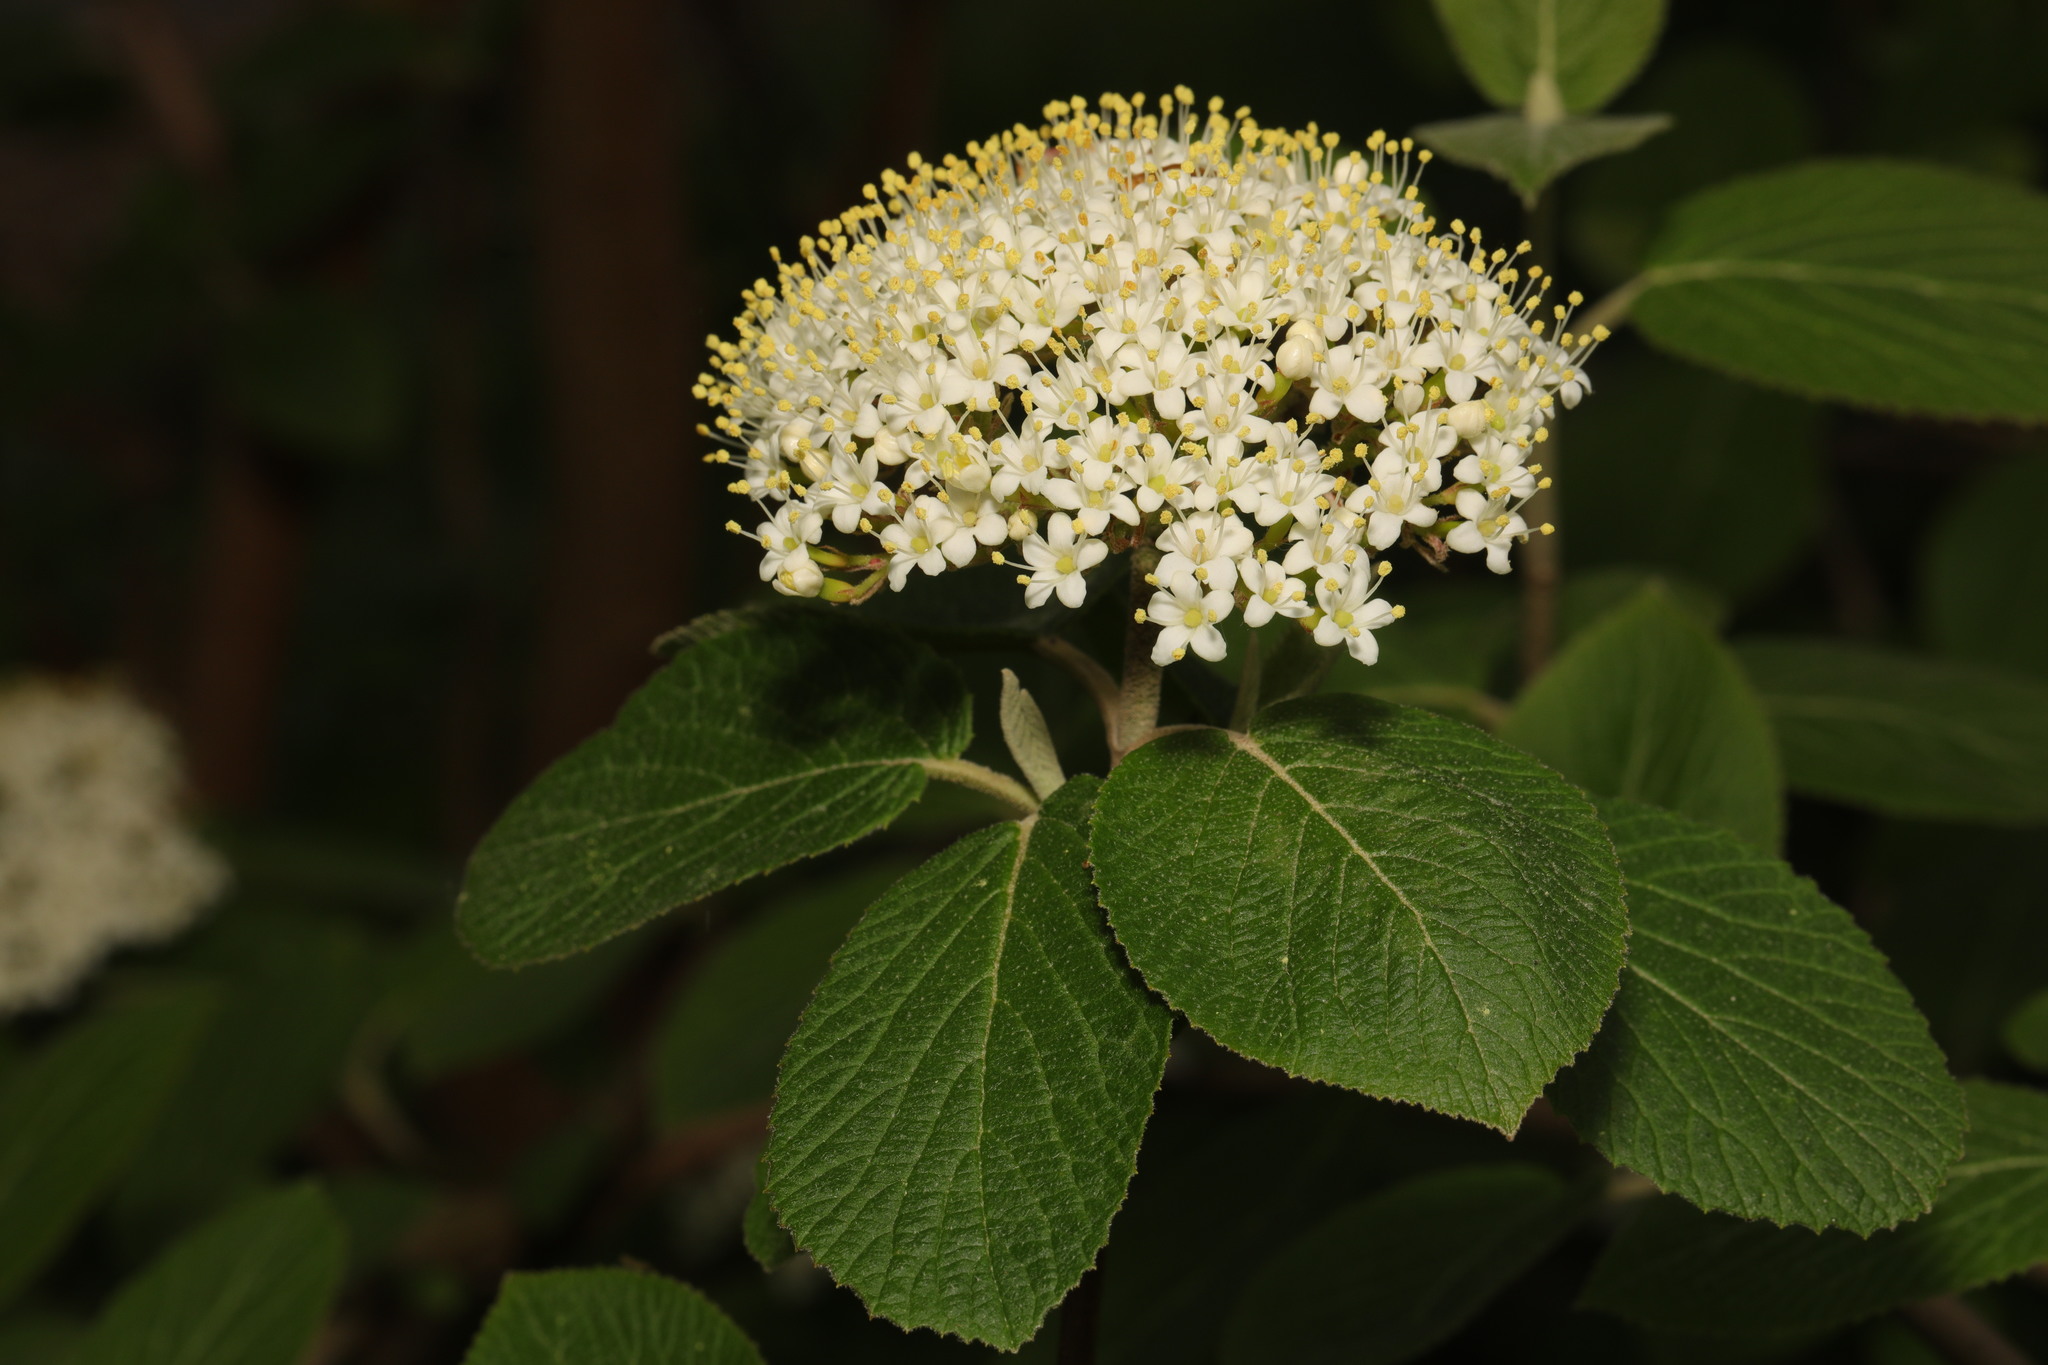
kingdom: Plantae
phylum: Tracheophyta
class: Magnoliopsida
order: Dipsacales
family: Viburnaceae
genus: Viburnum
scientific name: Viburnum lantana
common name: Wayfaring tree
